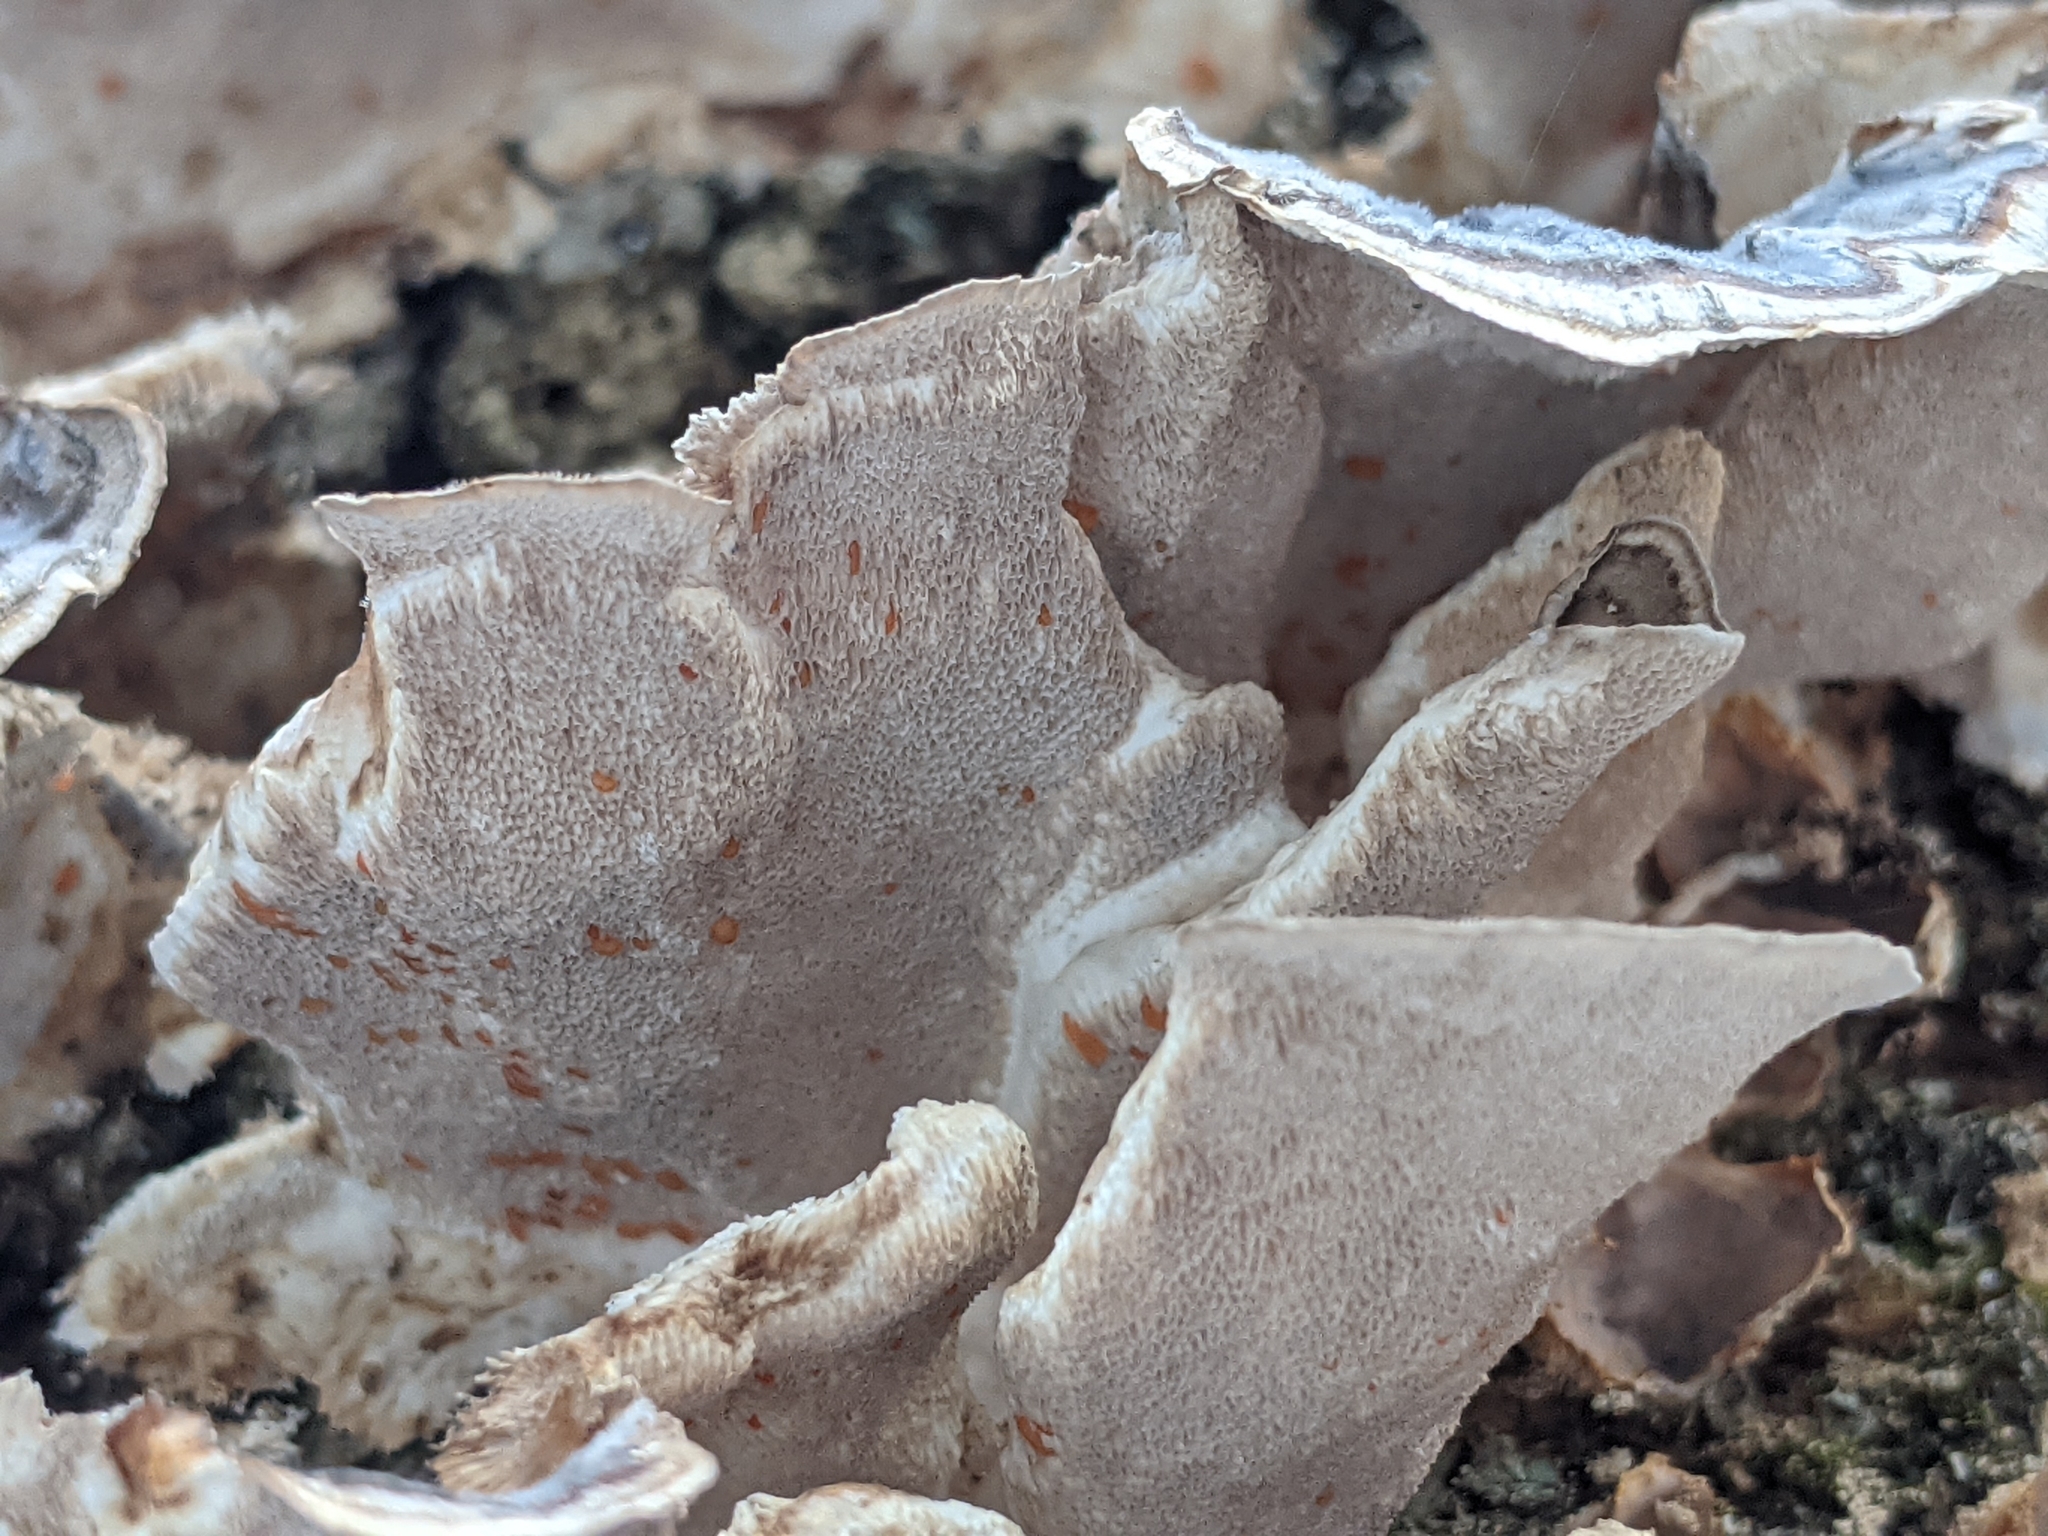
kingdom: Fungi
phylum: Basidiomycota
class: Agaricomycetes
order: Polyporales
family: Polyporaceae
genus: Trametes
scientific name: Trametes versicolor
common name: Turkeytail
